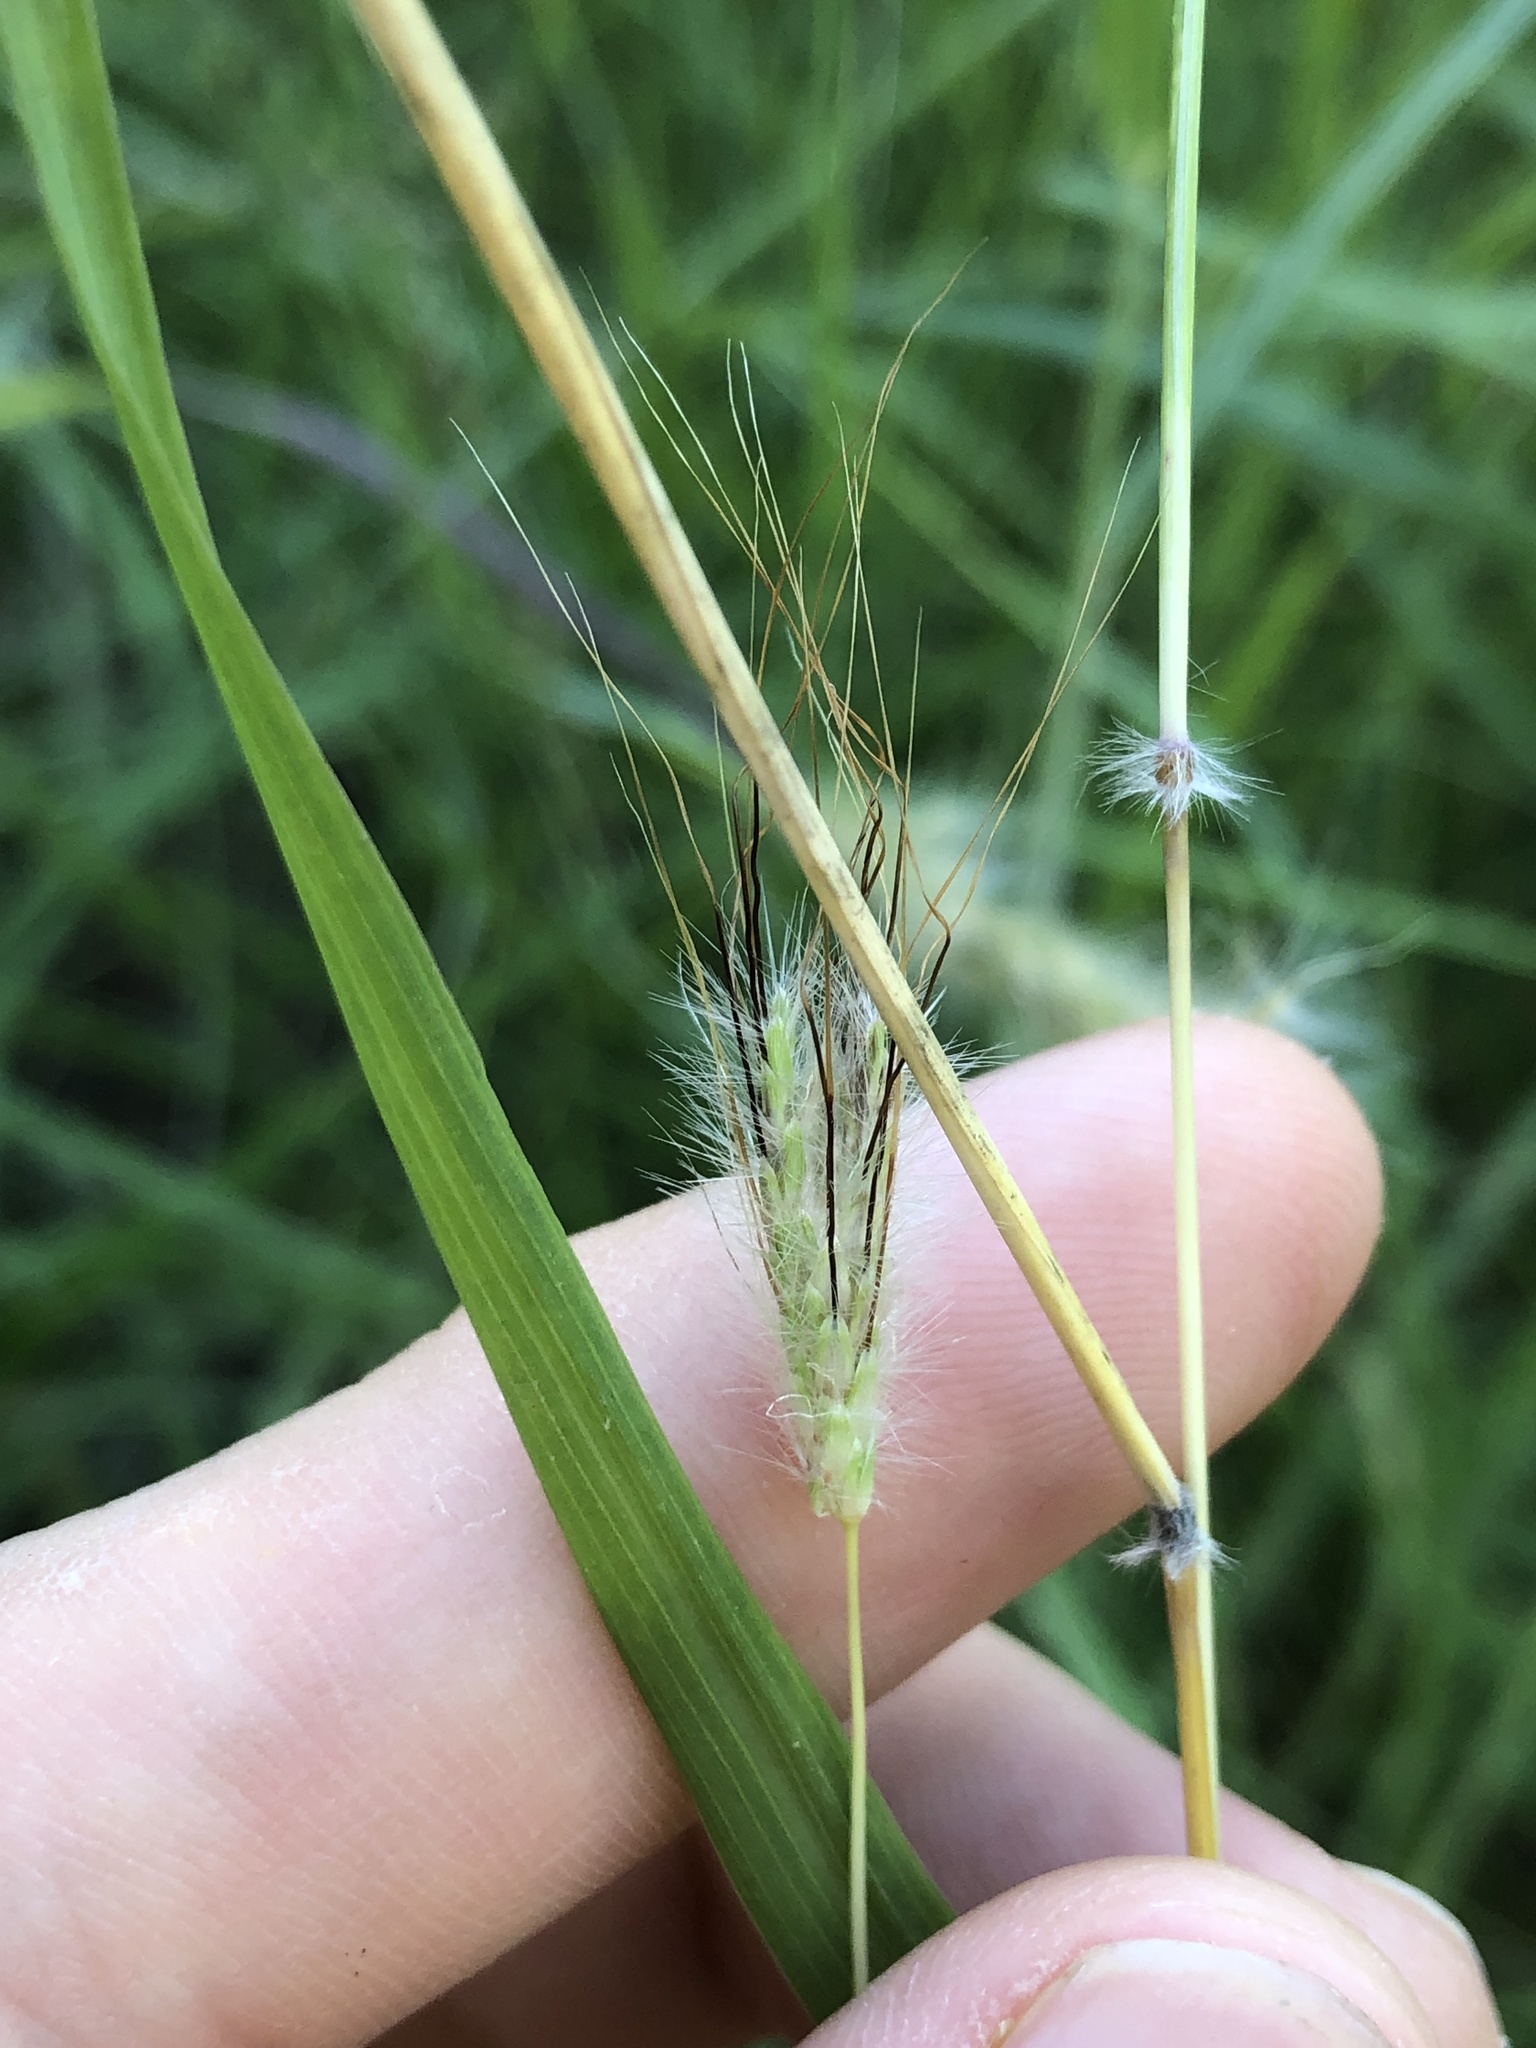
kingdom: Plantae
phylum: Tracheophyta
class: Liliopsida
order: Poales
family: Poaceae
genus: Dichanthium
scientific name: Dichanthium sericeum
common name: Silky bluestem
